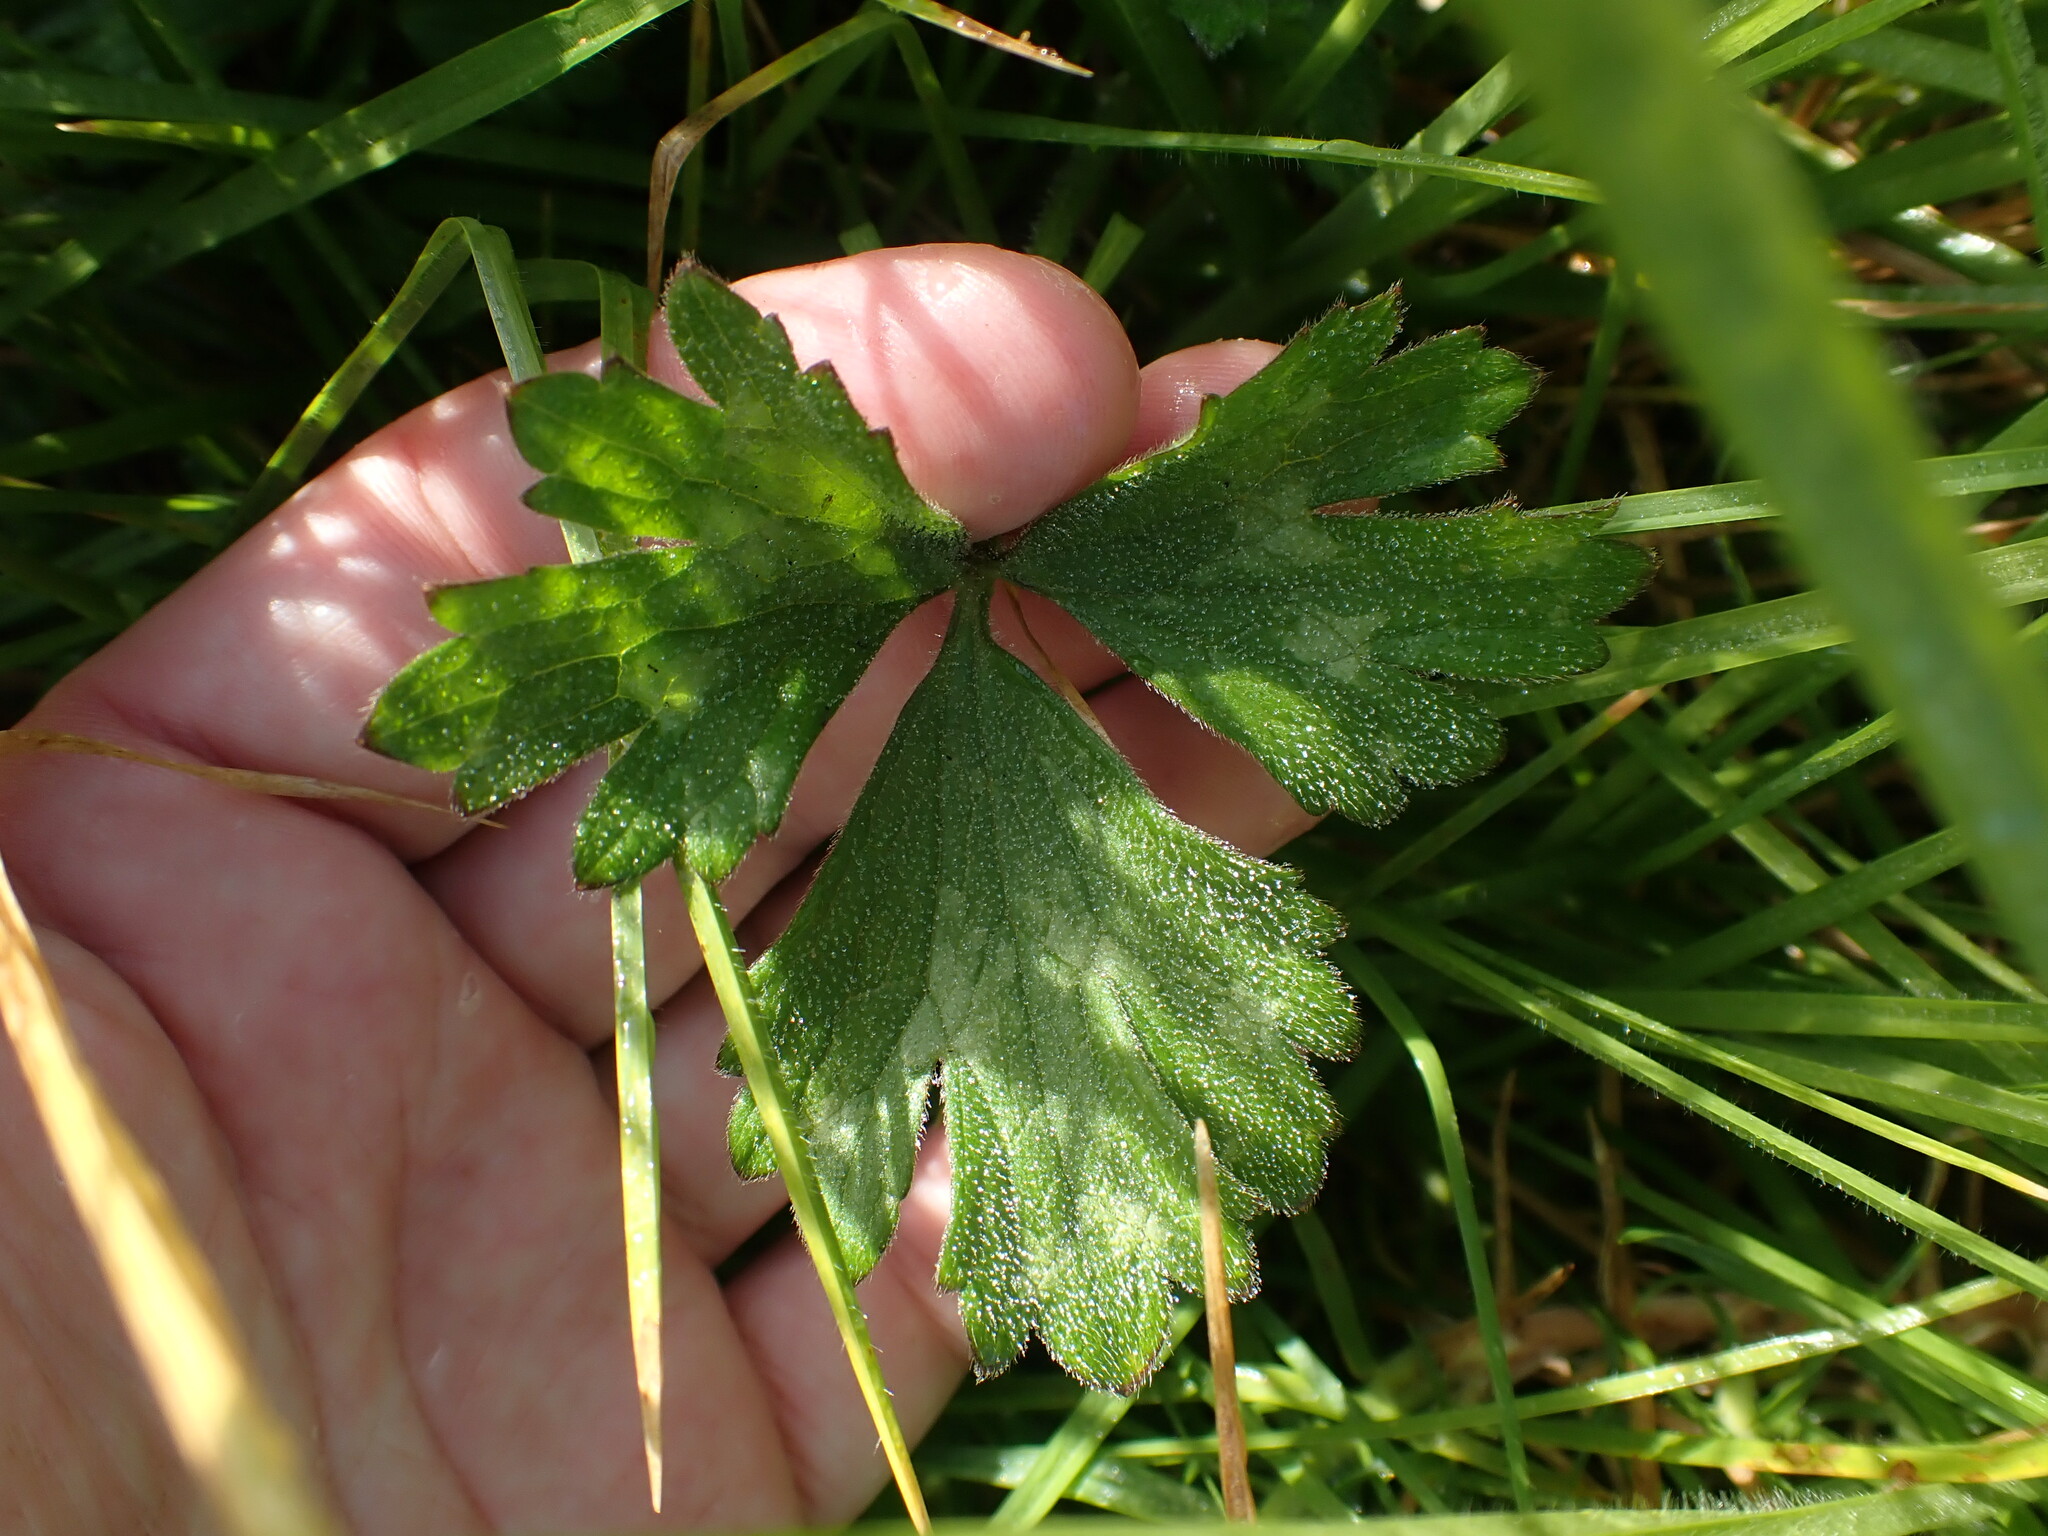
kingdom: Plantae
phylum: Tracheophyta
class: Magnoliopsida
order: Ranunculales
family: Ranunculaceae
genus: Ranunculus
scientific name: Ranunculus repens
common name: Creeping buttercup
